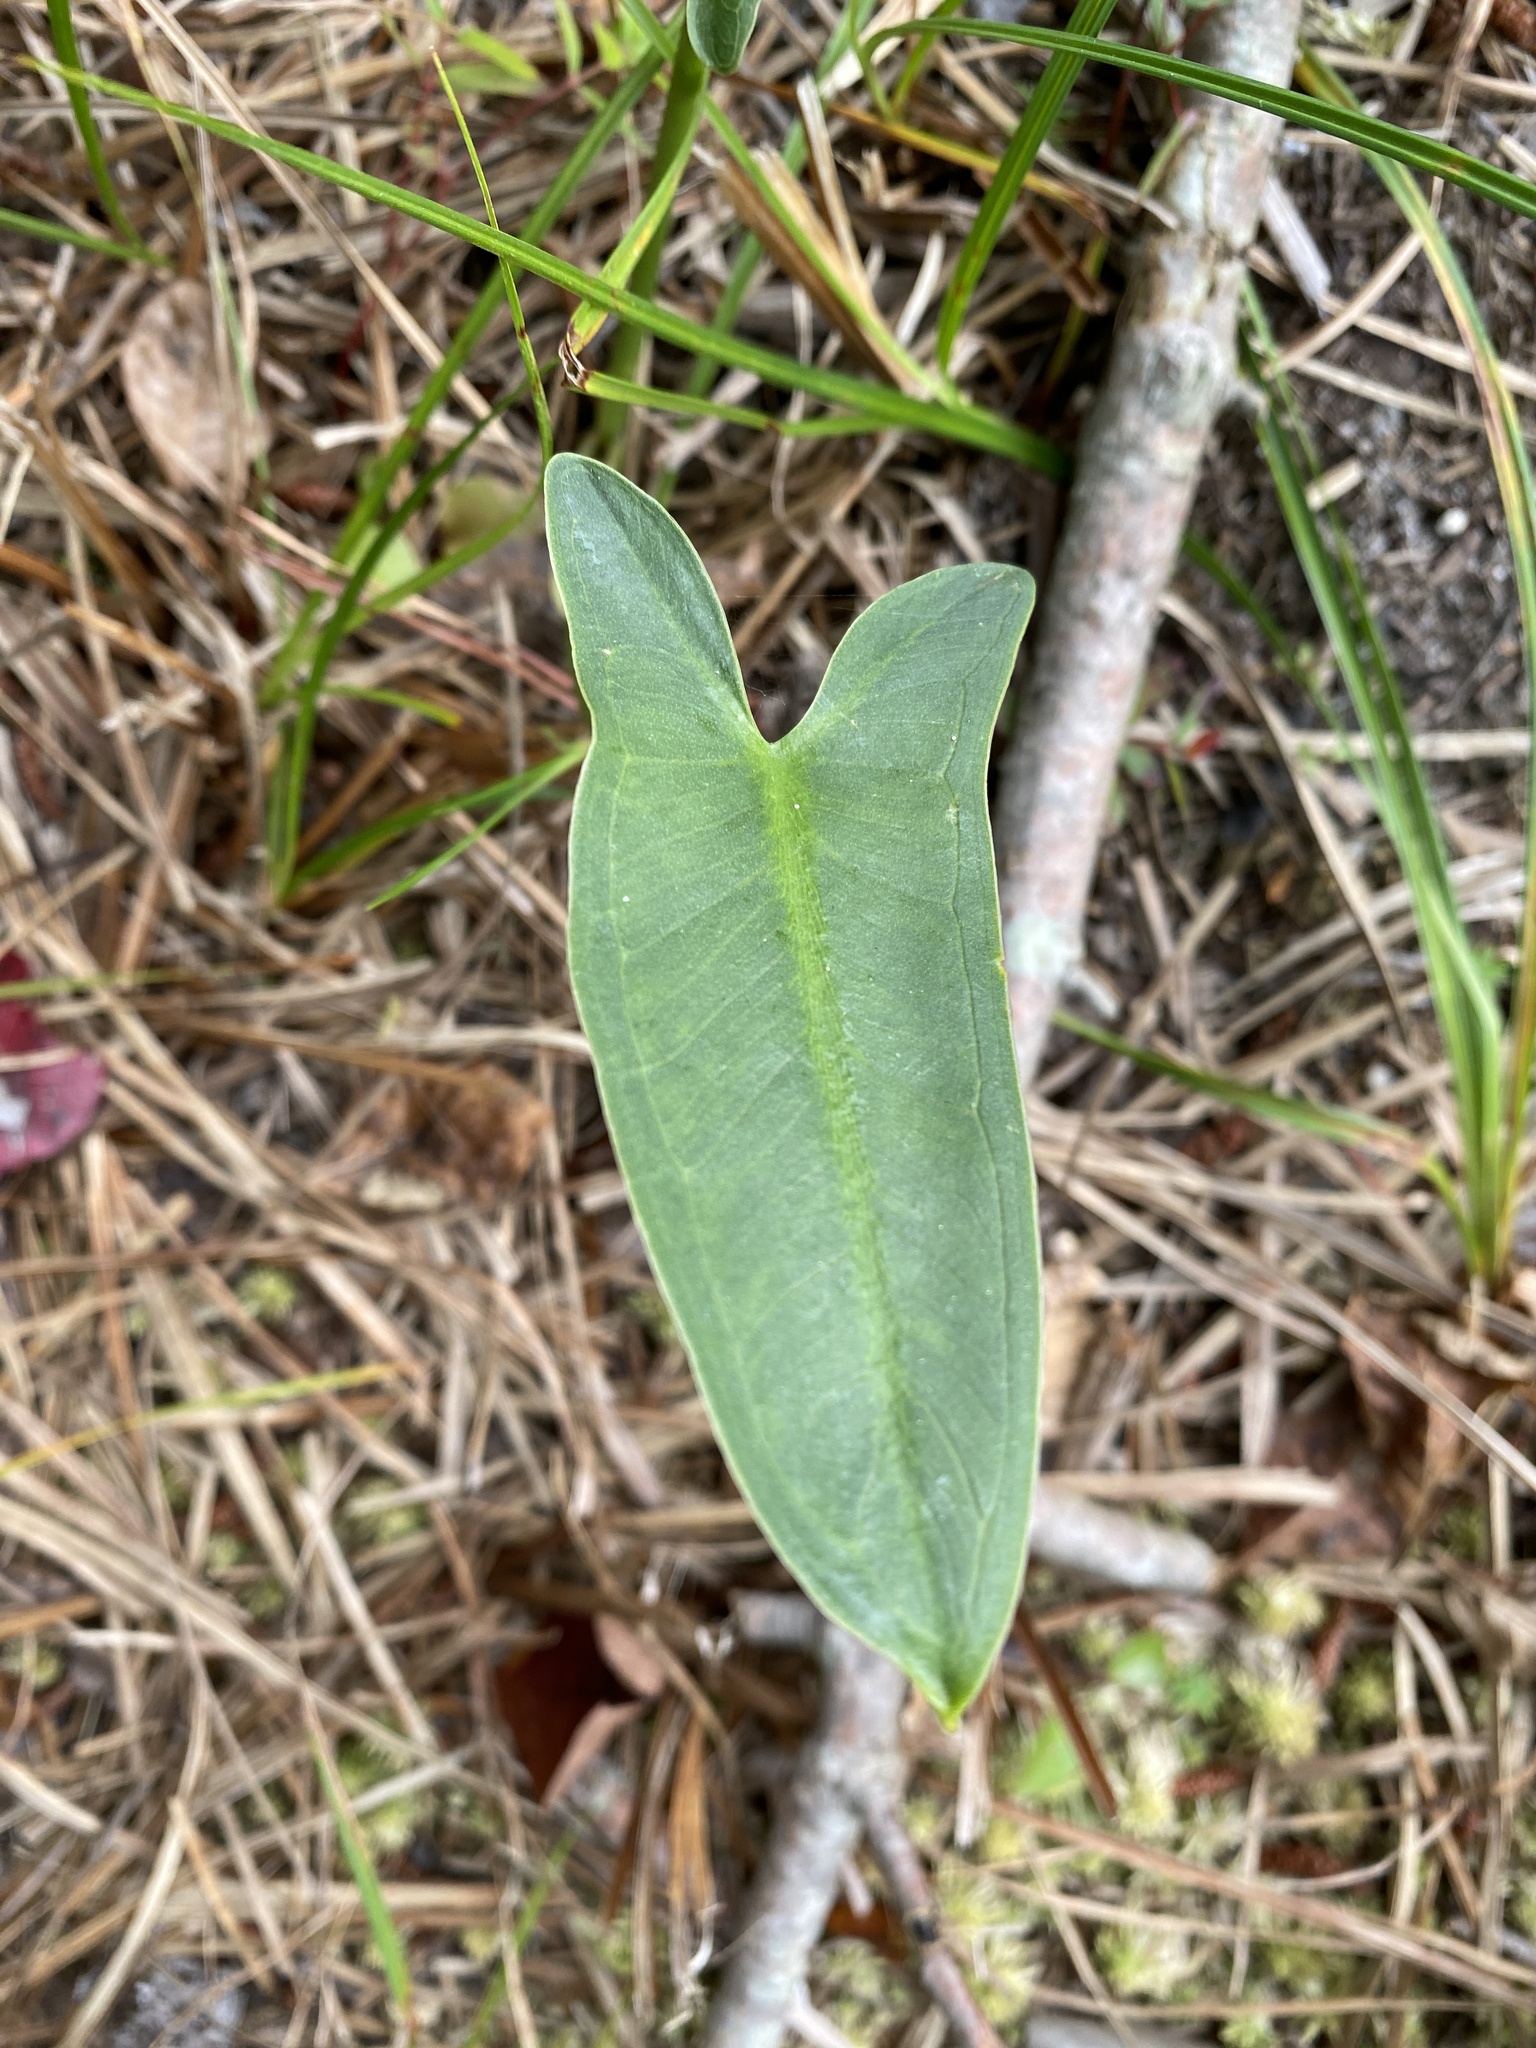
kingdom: Plantae
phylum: Tracheophyta
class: Liliopsida
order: Alismatales
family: Araceae
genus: Peltandra
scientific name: Peltandra virginica
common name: Arrow arum
